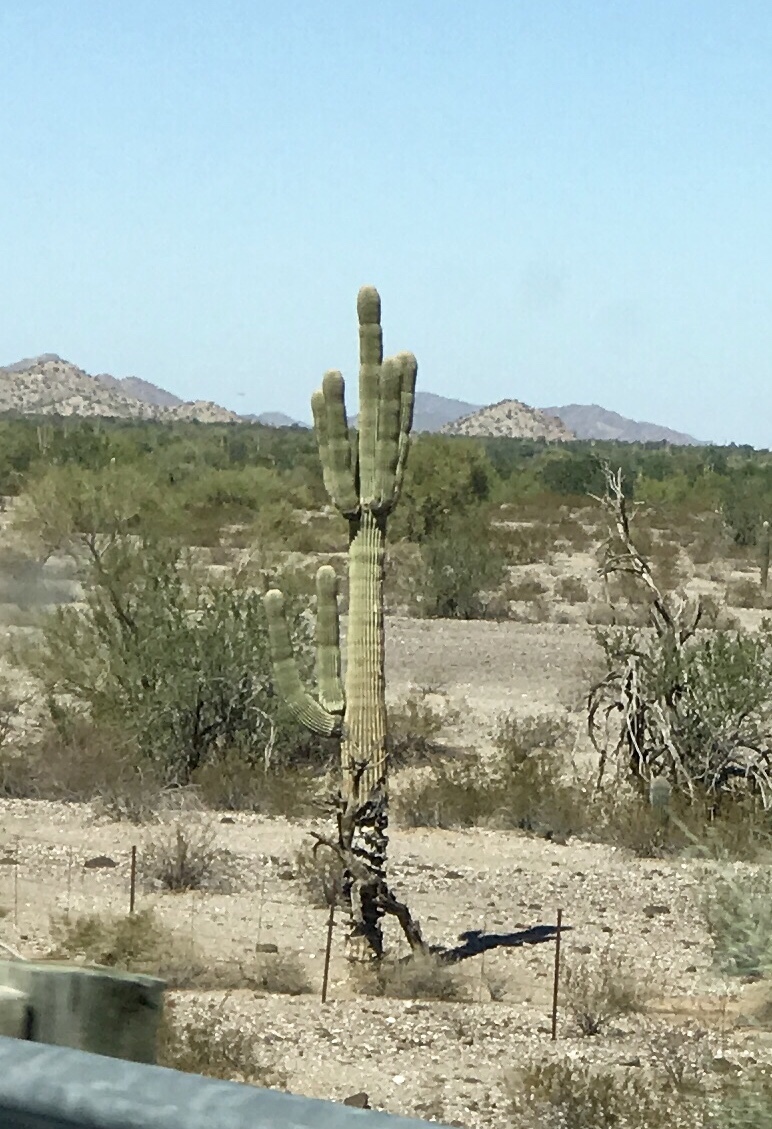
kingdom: Plantae
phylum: Tracheophyta
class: Magnoliopsida
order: Caryophyllales
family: Cactaceae
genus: Carnegiea
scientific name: Carnegiea gigantea
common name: Saguaro
